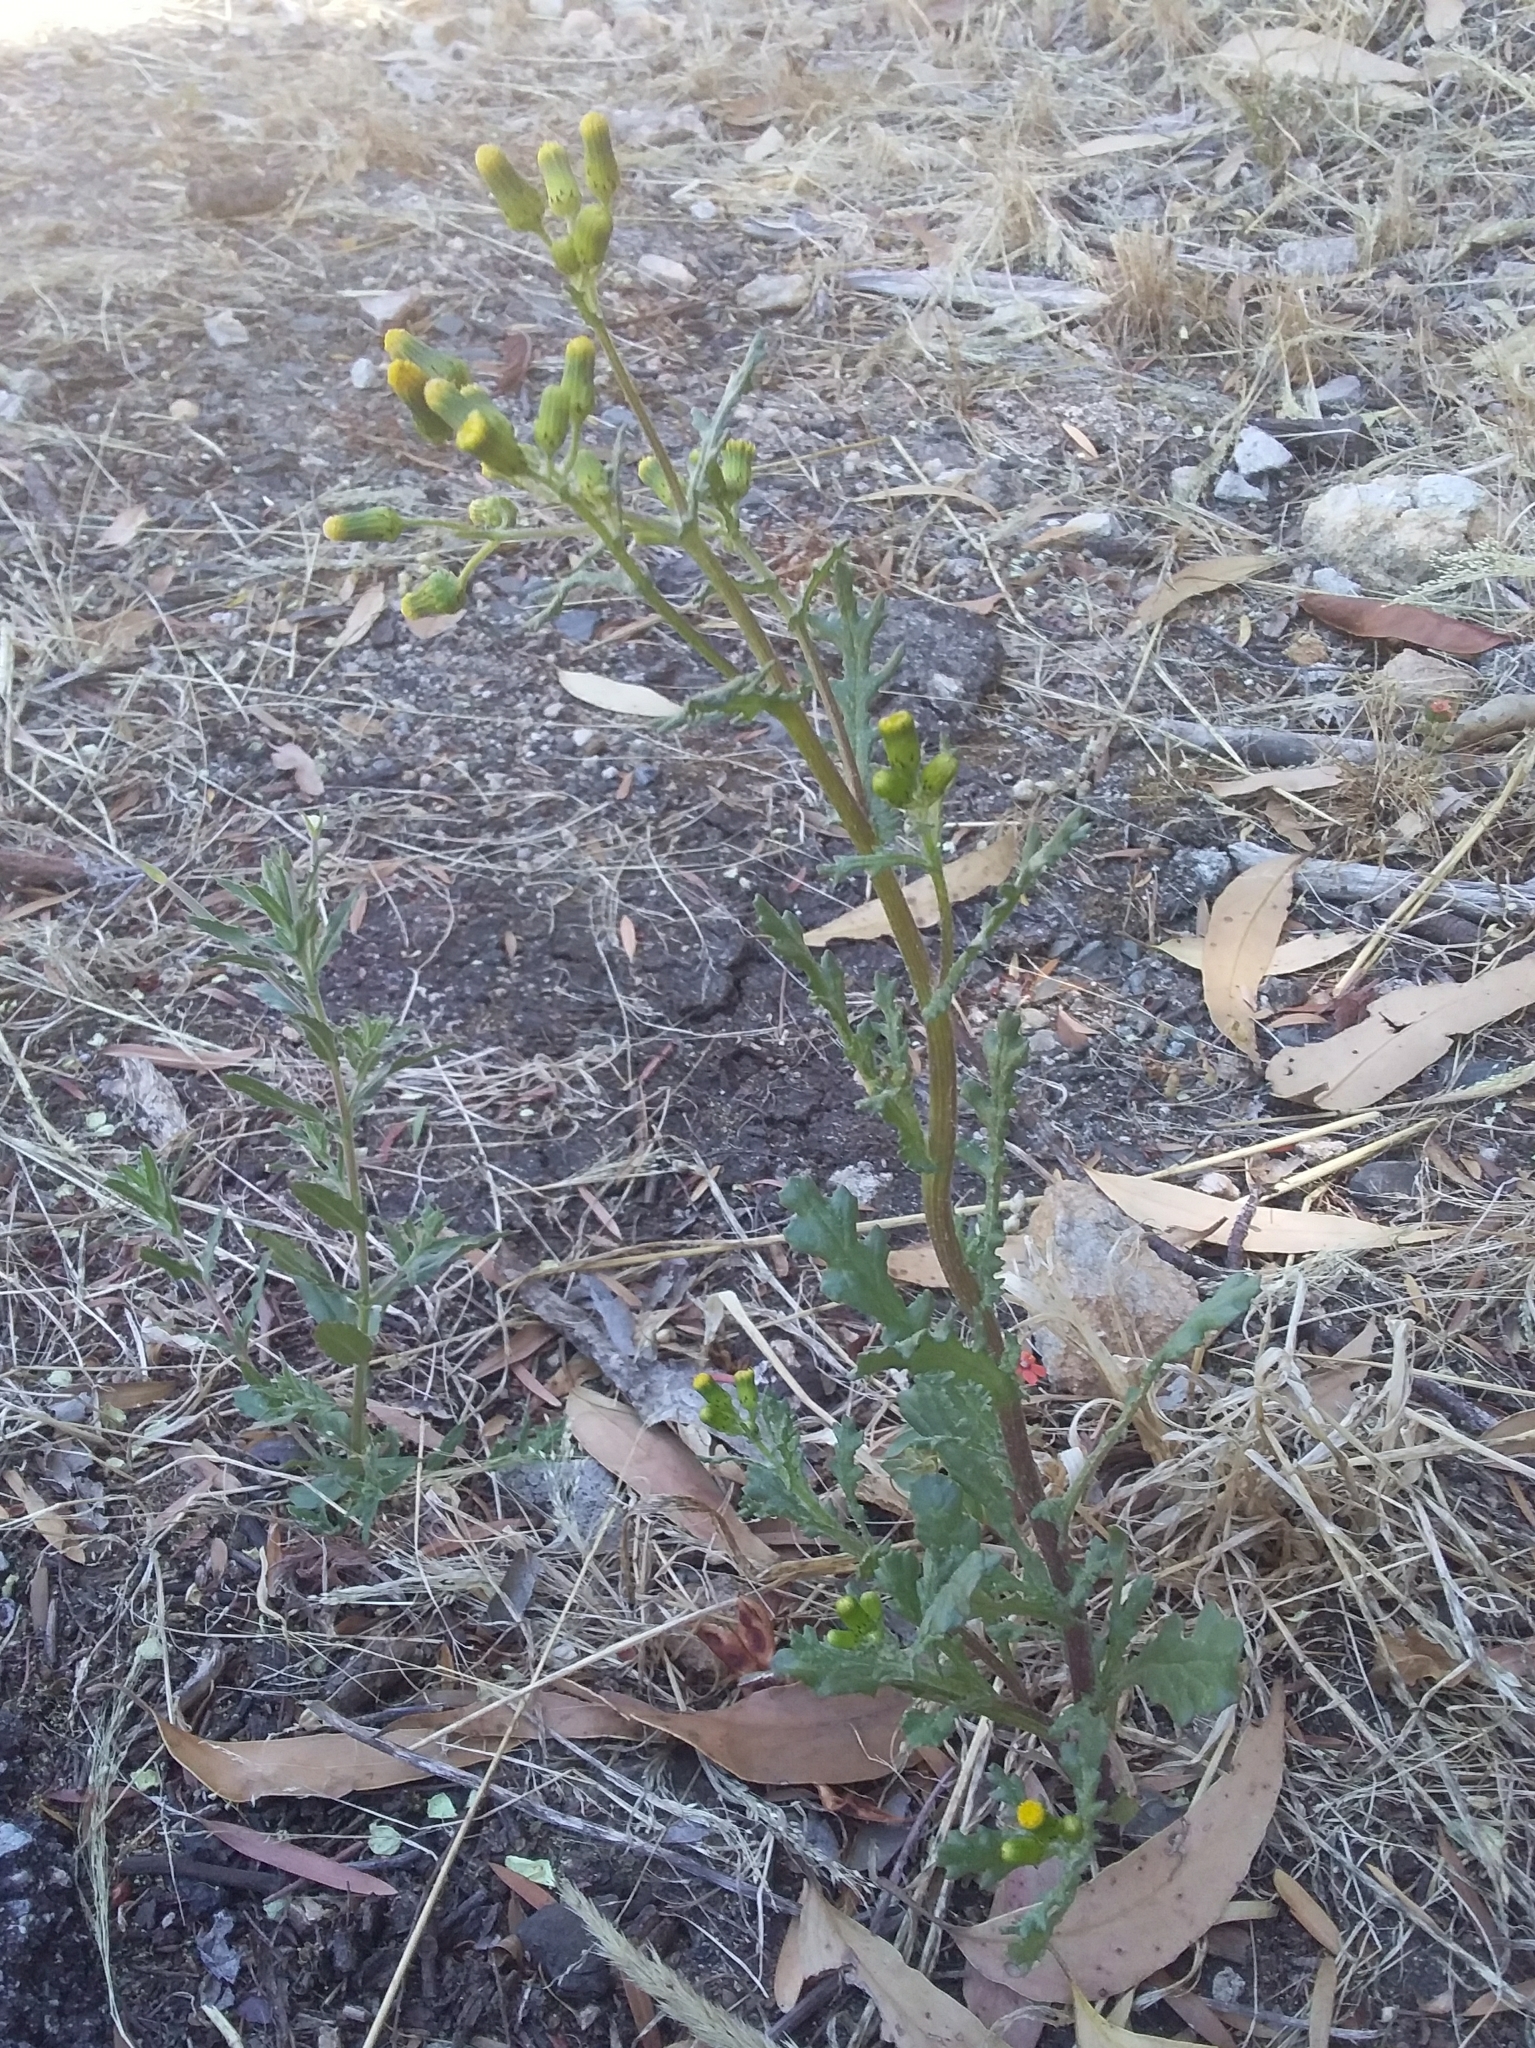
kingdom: Plantae
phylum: Tracheophyta
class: Magnoliopsida
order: Asterales
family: Asteraceae
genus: Senecio
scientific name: Senecio vulgaris
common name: Old-man-in-the-spring
